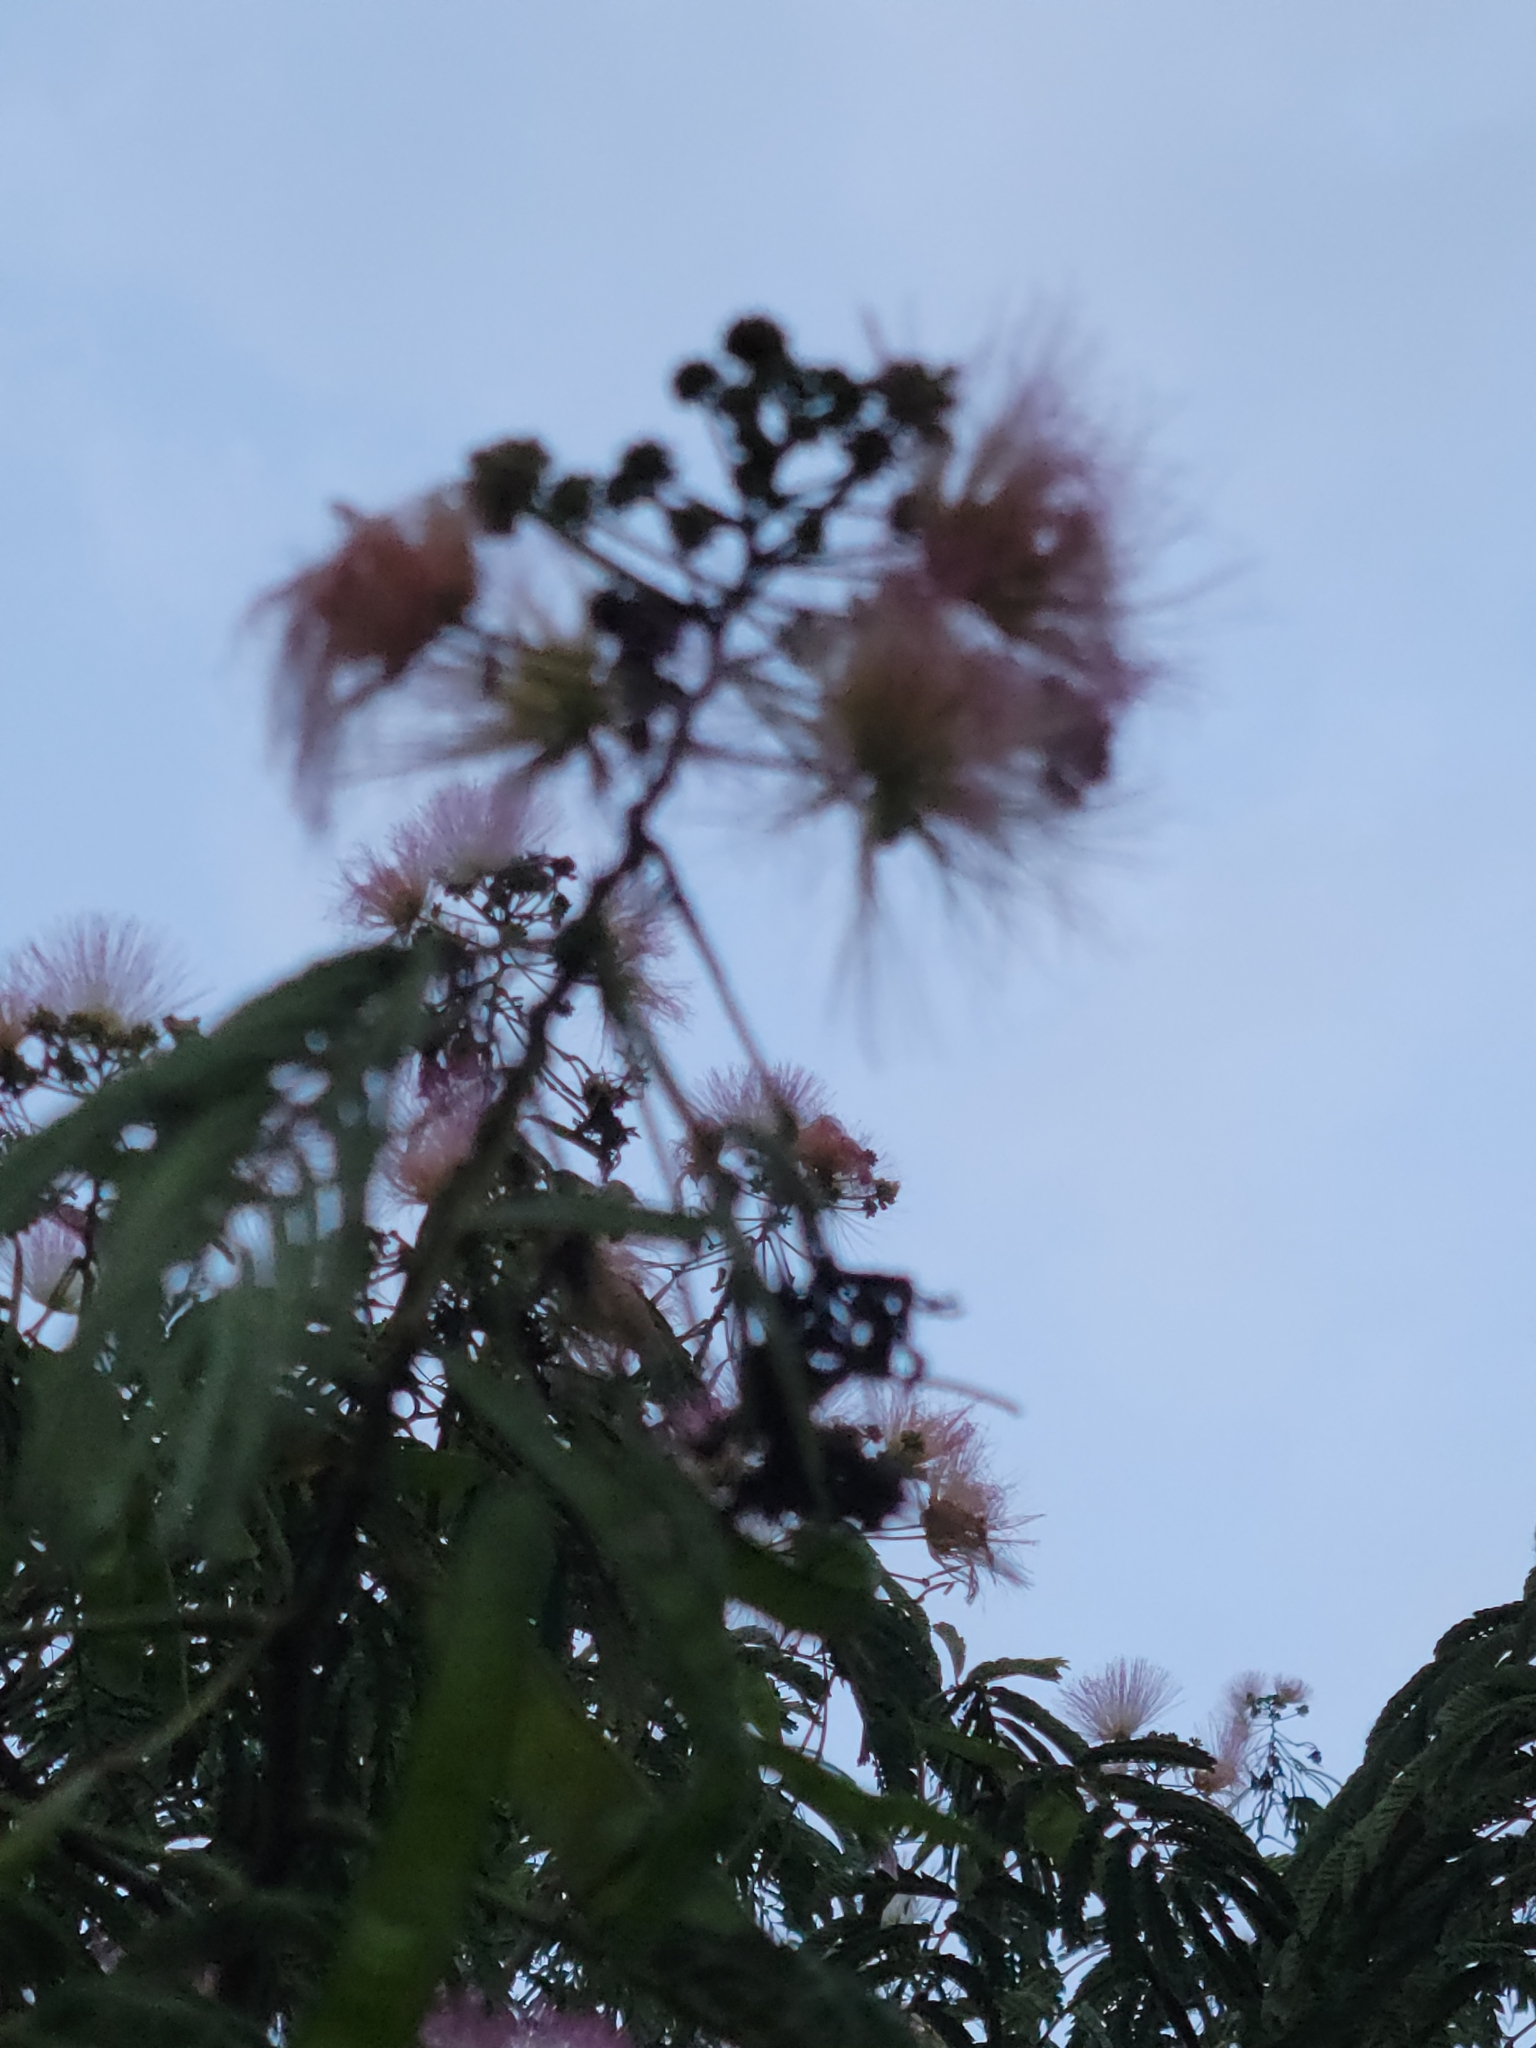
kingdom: Plantae
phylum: Tracheophyta
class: Magnoliopsida
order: Fabales
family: Fabaceae
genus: Albizia
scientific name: Albizia julibrissin
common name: Silktree
